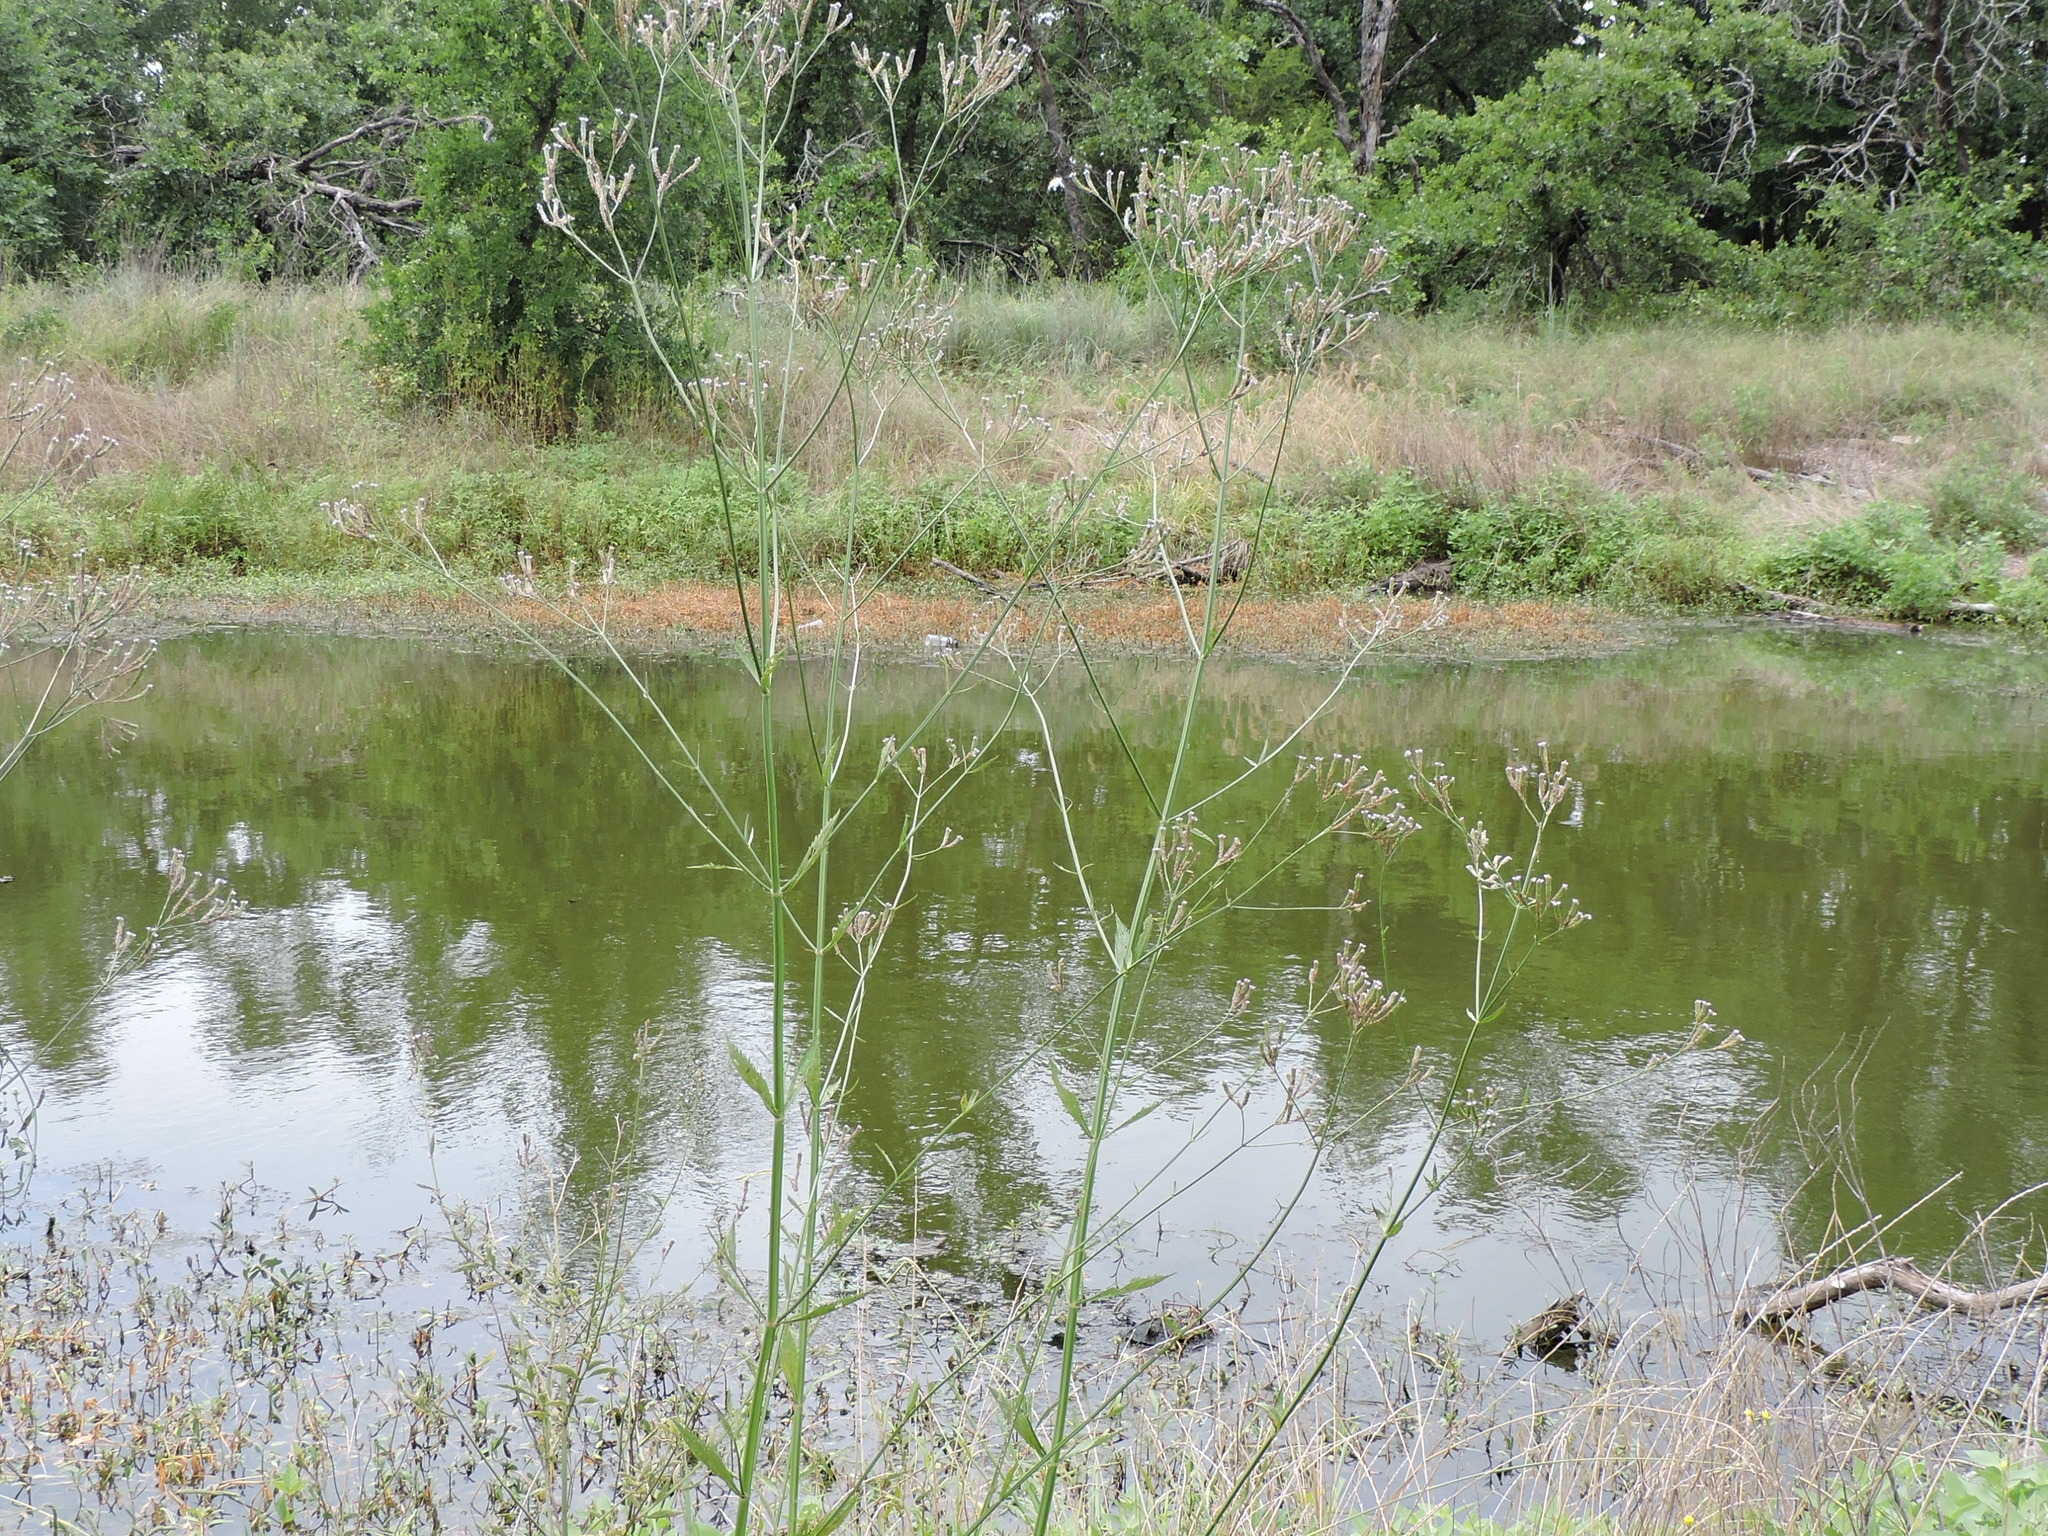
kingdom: Plantae
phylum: Tracheophyta
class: Magnoliopsida
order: Lamiales
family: Verbenaceae
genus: Verbena
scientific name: Verbena brasiliensis
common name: Brazilian vervain
